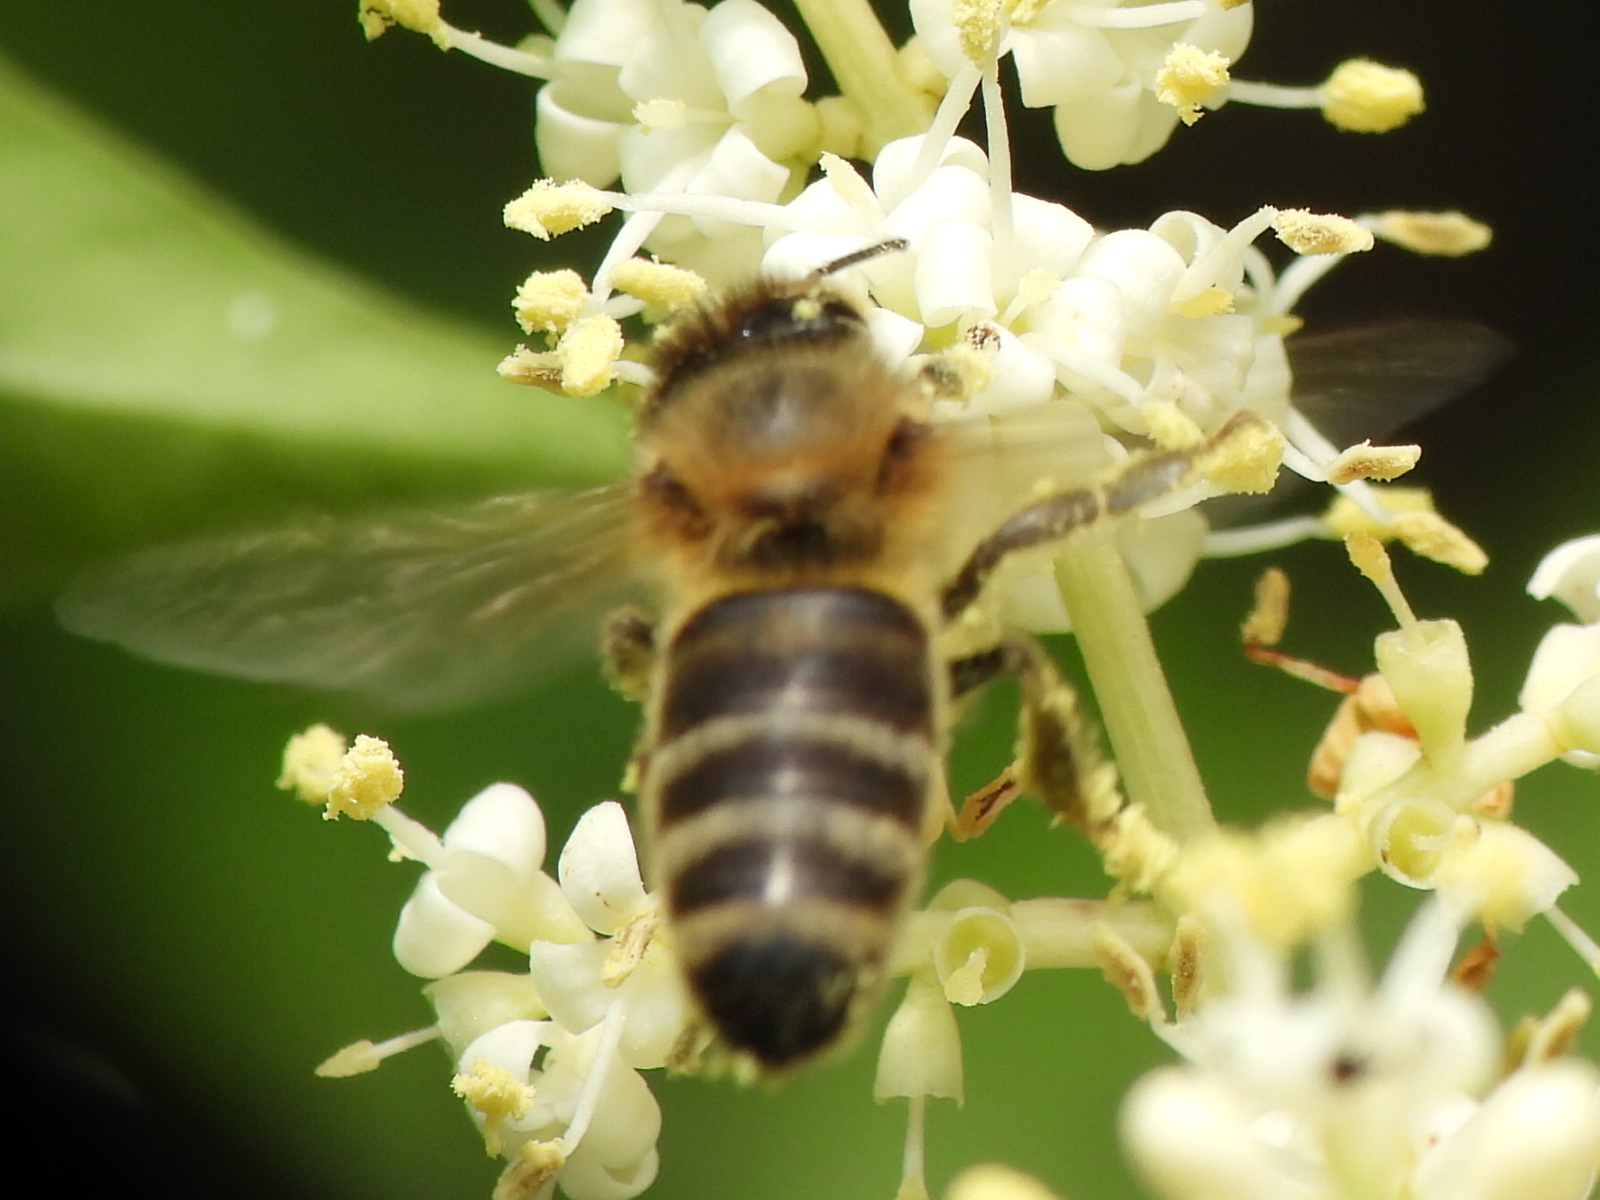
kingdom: Animalia
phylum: Arthropoda
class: Insecta
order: Hymenoptera
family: Apidae
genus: Apis
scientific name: Apis mellifera
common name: Honey bee
